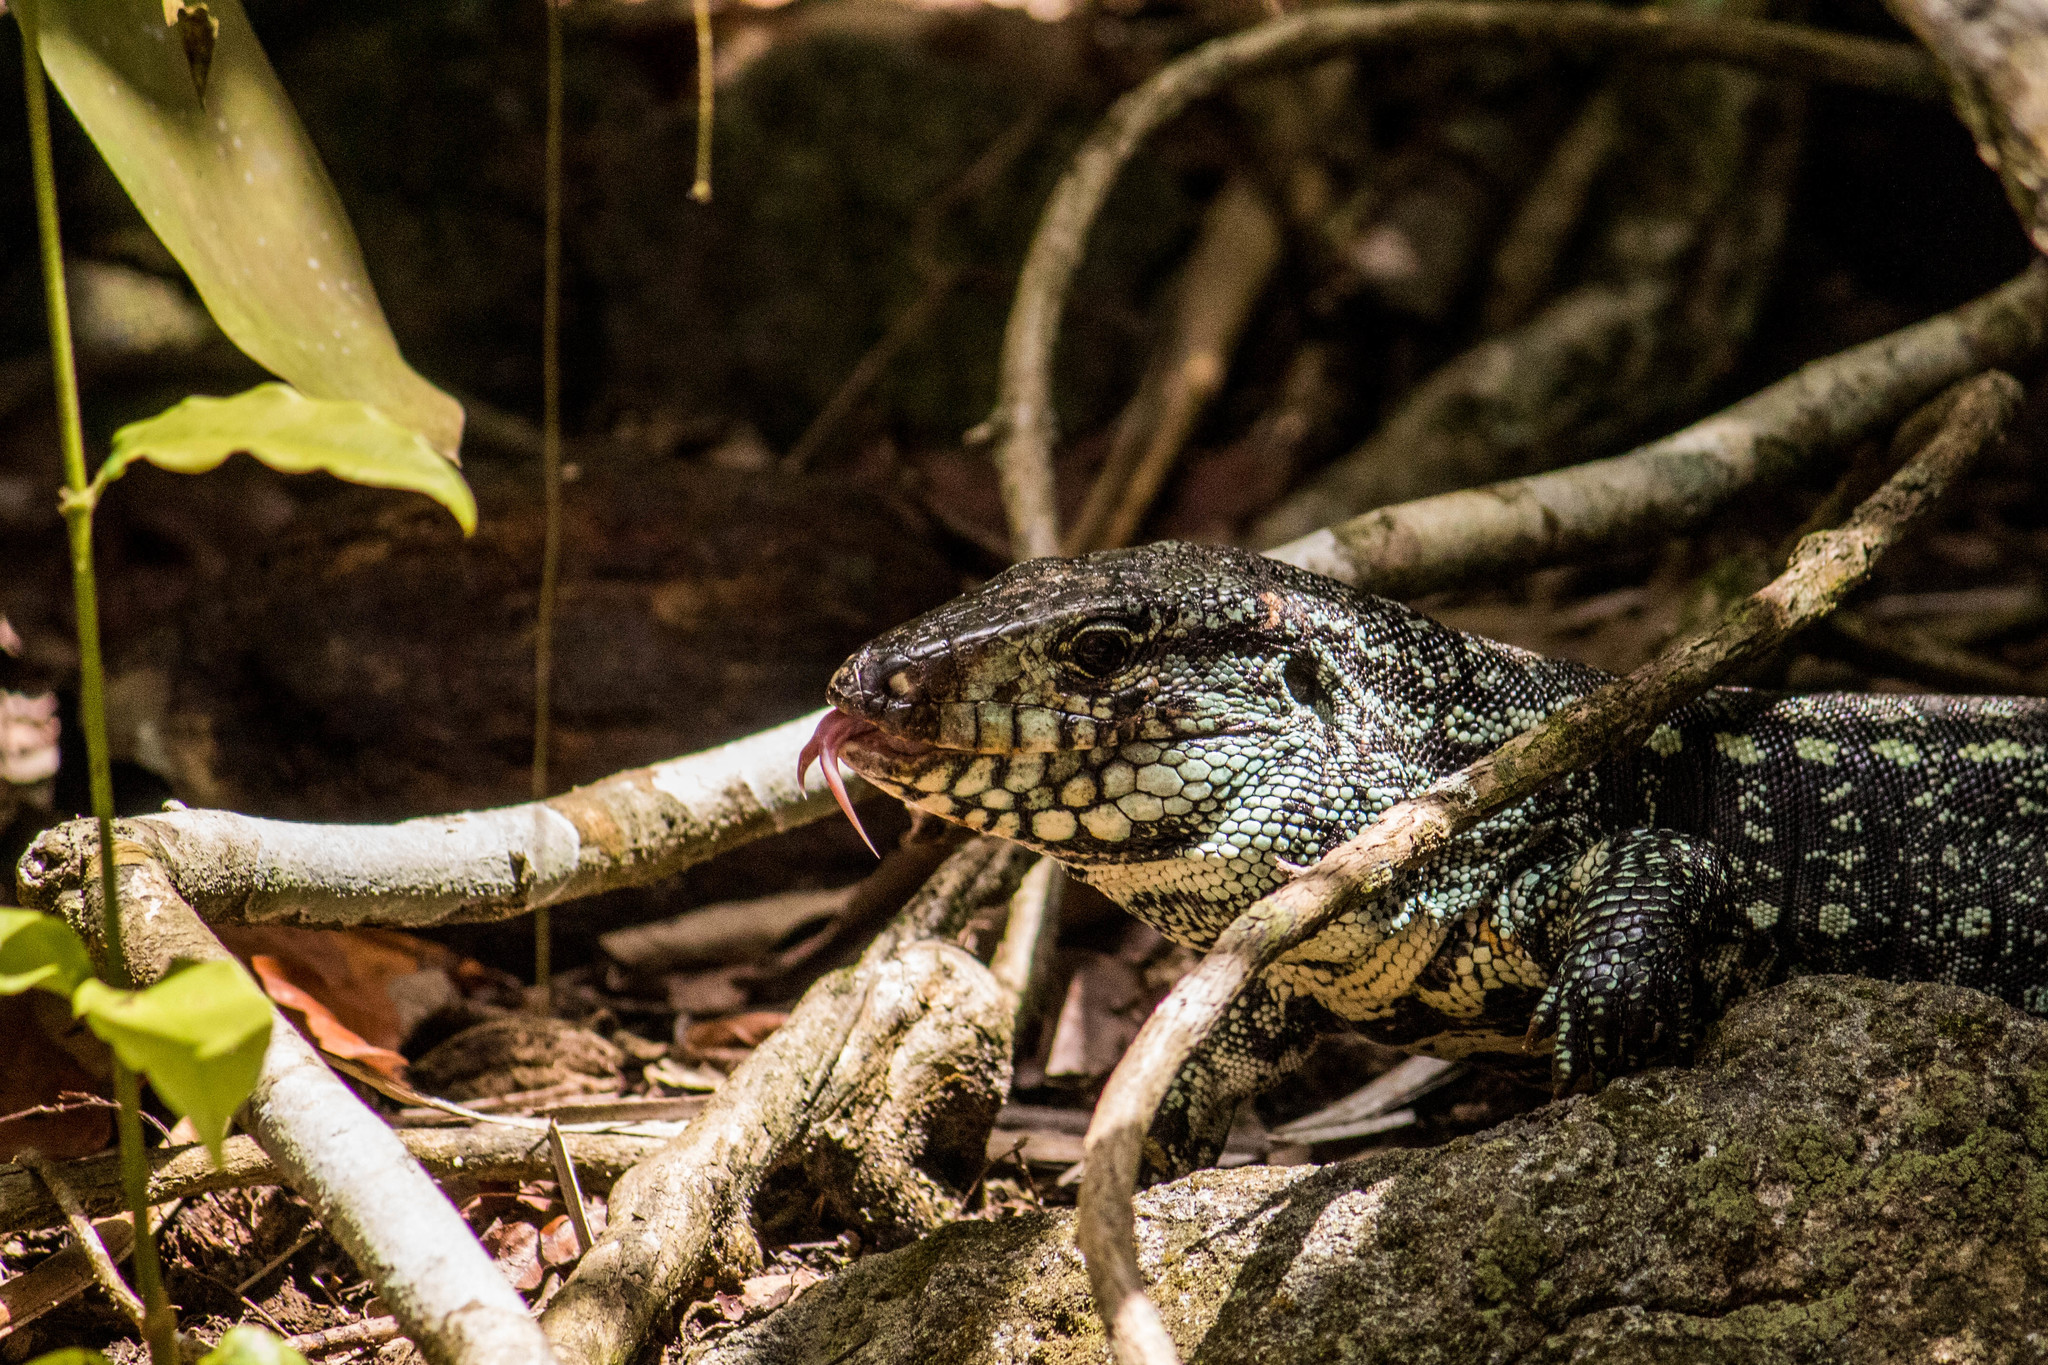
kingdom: Animalia
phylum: Chordata
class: Squamata
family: Teiidae
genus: Salvator
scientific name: Salvator merianae
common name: Argentine black and white tegu
